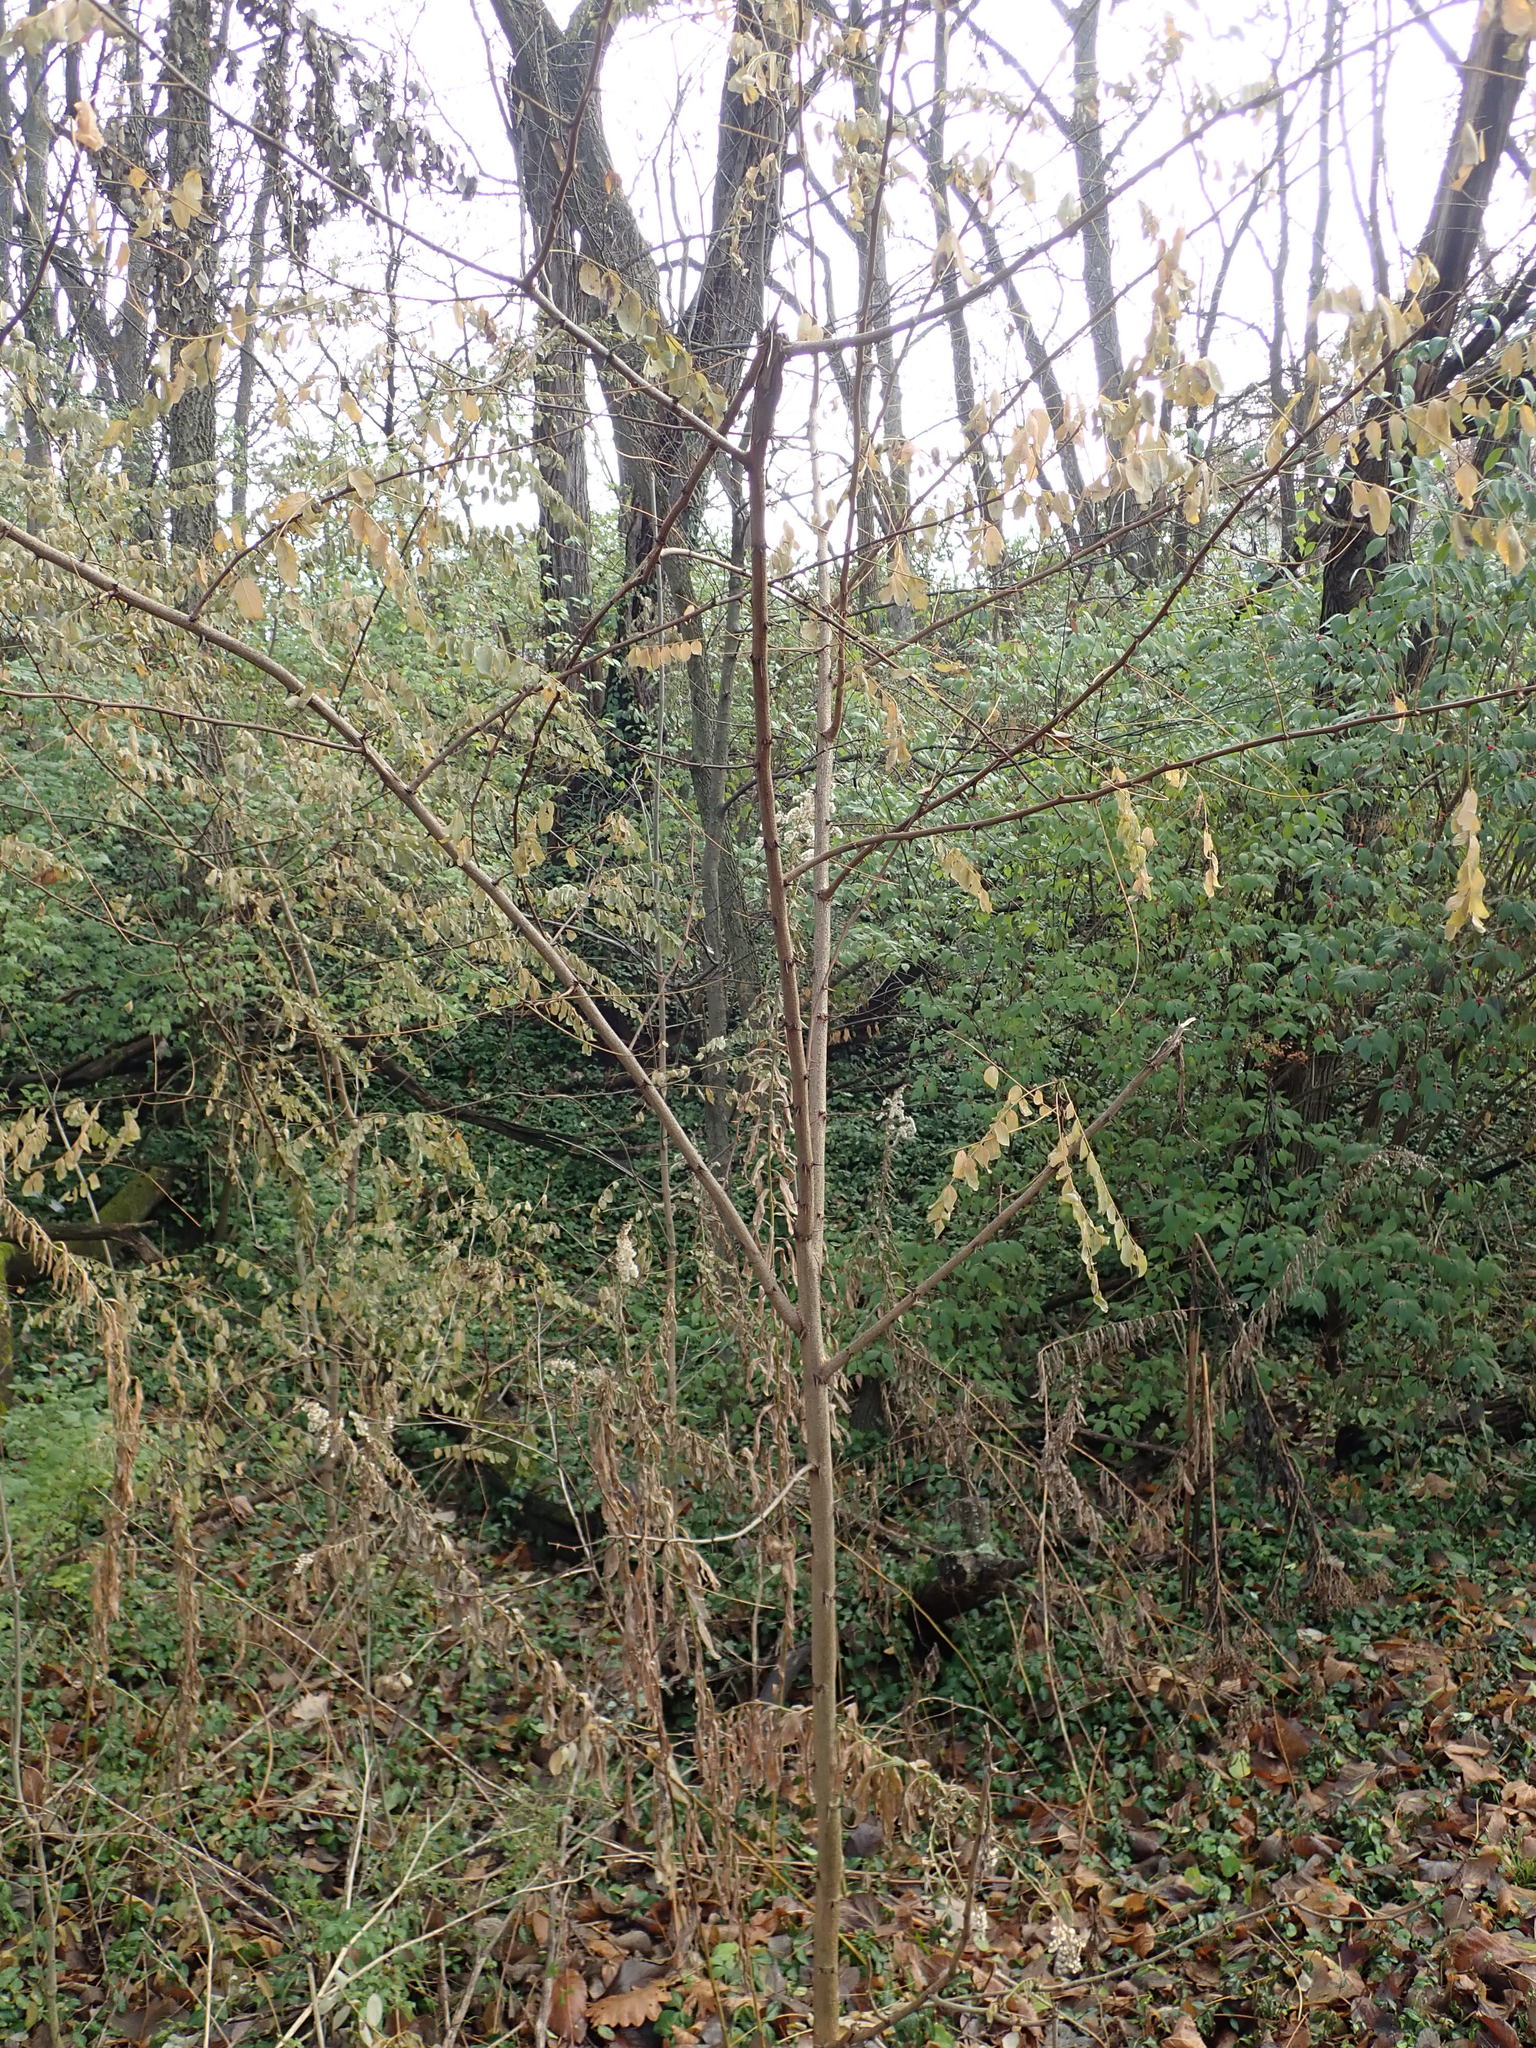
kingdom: Plantae
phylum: Tracheophyta
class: Magnoliopsida
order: Fabales
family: Fabaceae
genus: Robinia
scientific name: Robinia pseudoacacia
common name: Black locust
